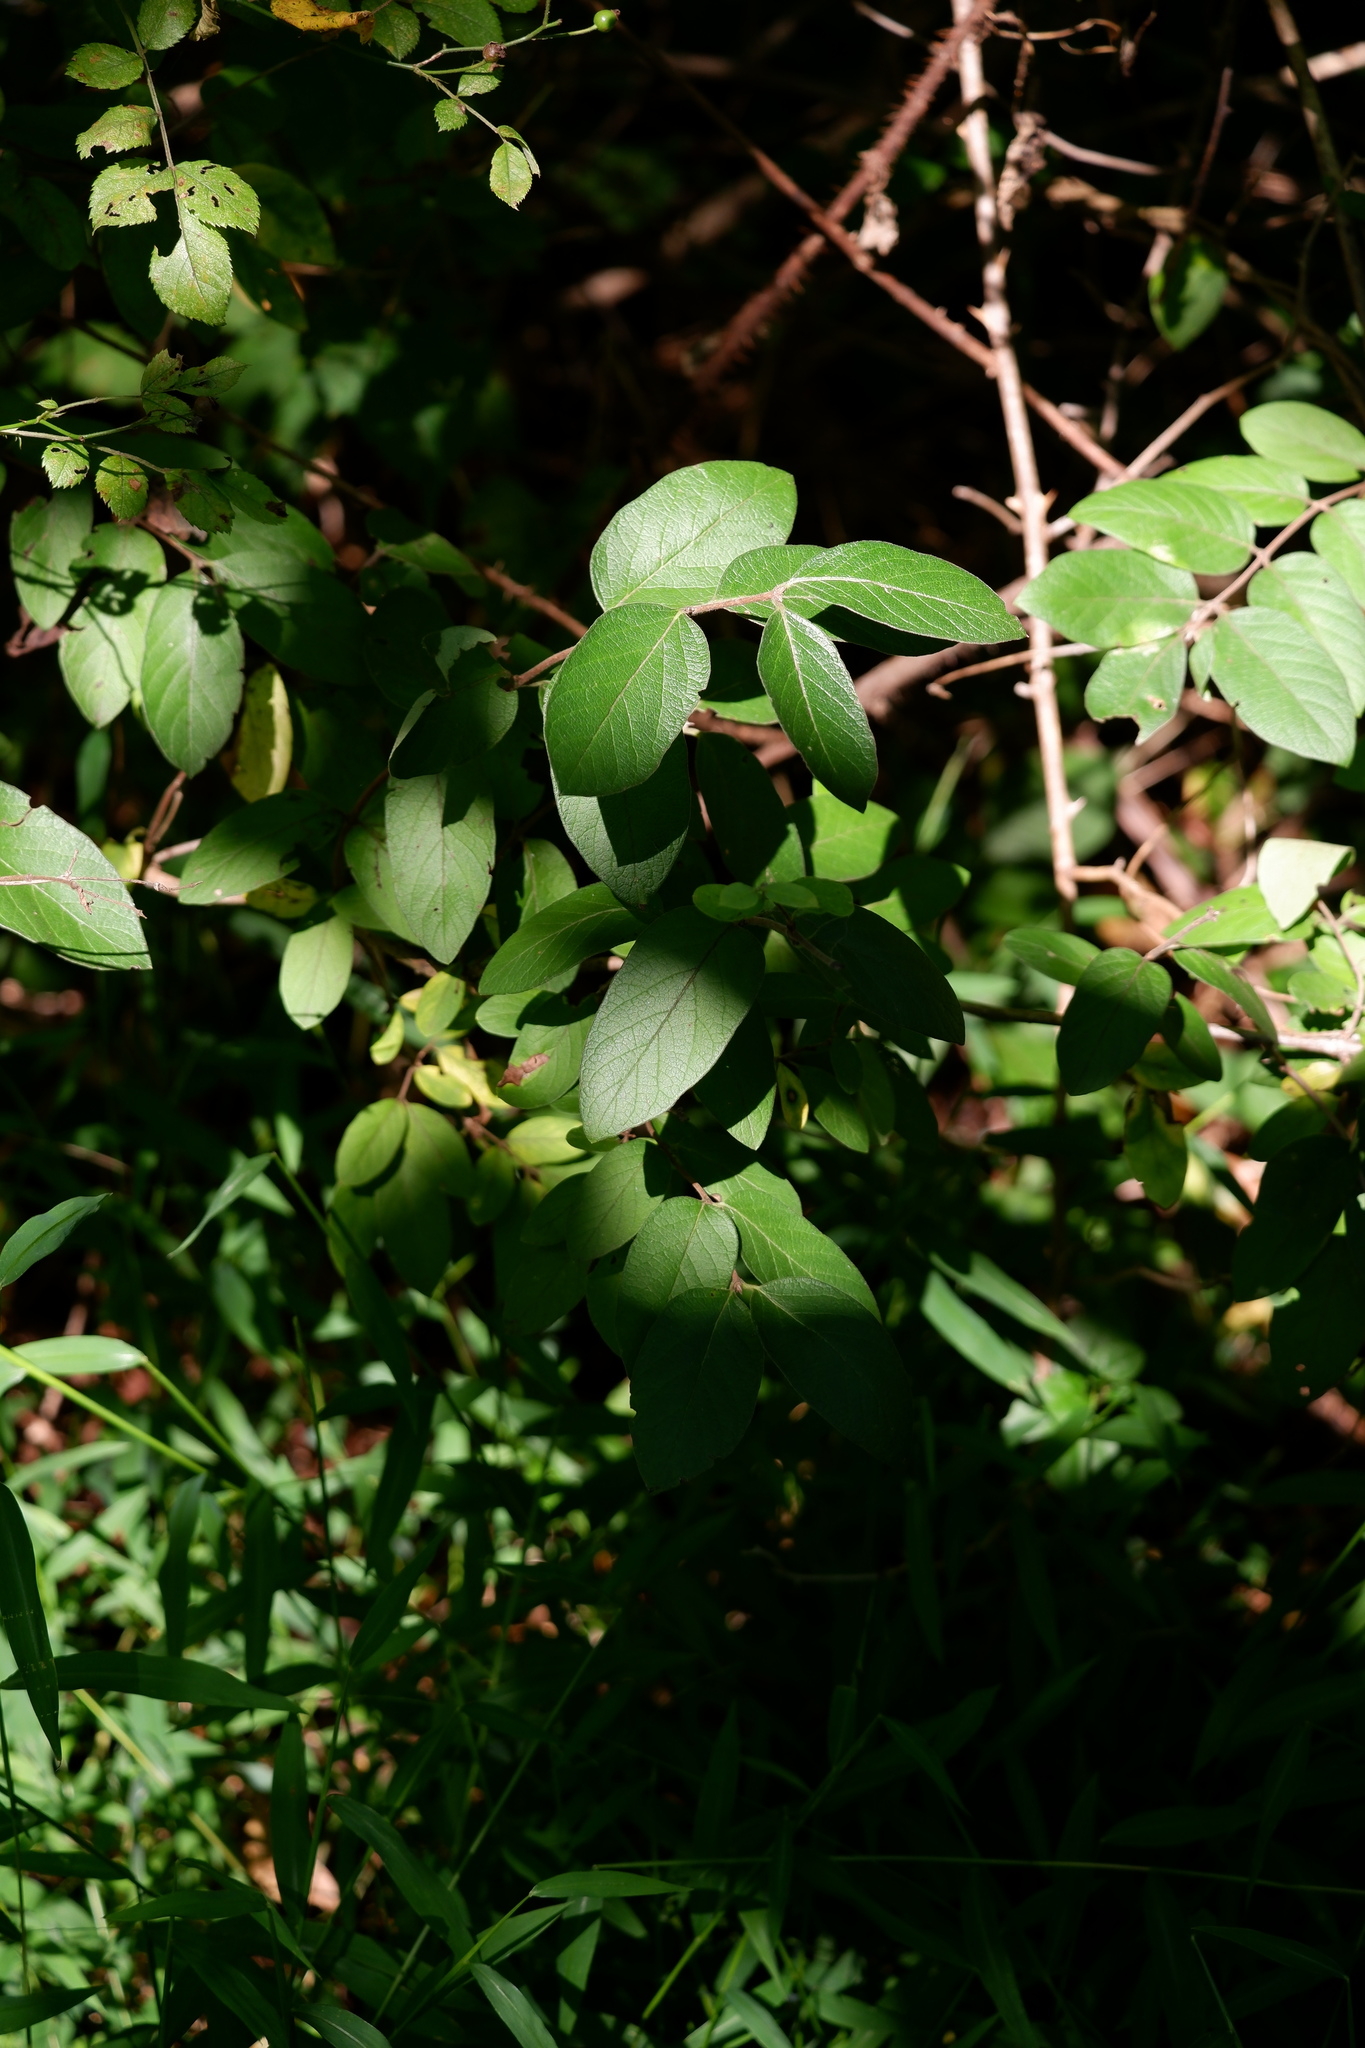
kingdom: Plantae
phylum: Tracheophyta
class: Magnoliopsida
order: Dipsacales
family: Caprifoliaceae
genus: Lonicera
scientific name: Lonicera morrowii
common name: Morrow's honeysuckle
